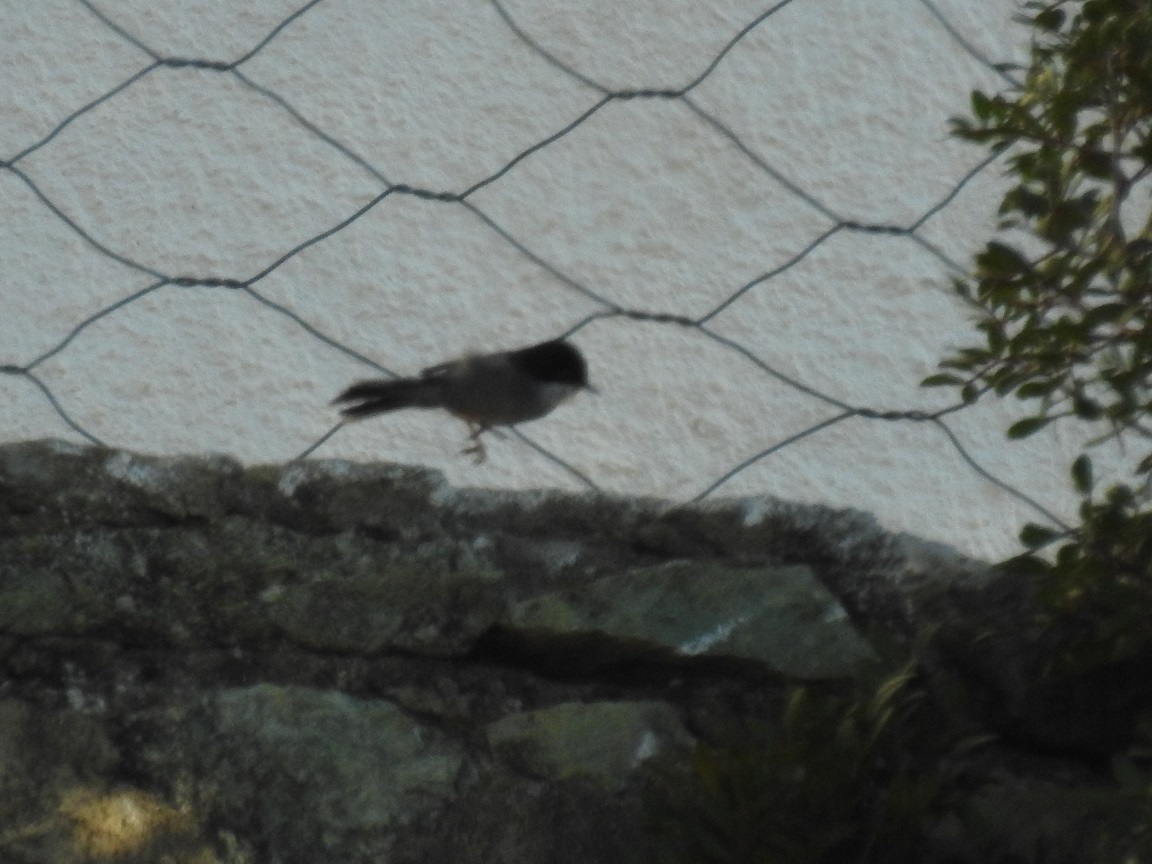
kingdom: Animalia
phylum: Chordata
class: Aves
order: Passeriformes
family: Sylviidae
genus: Curruca
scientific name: Curruca melanocephala
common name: Sardinian warbler
